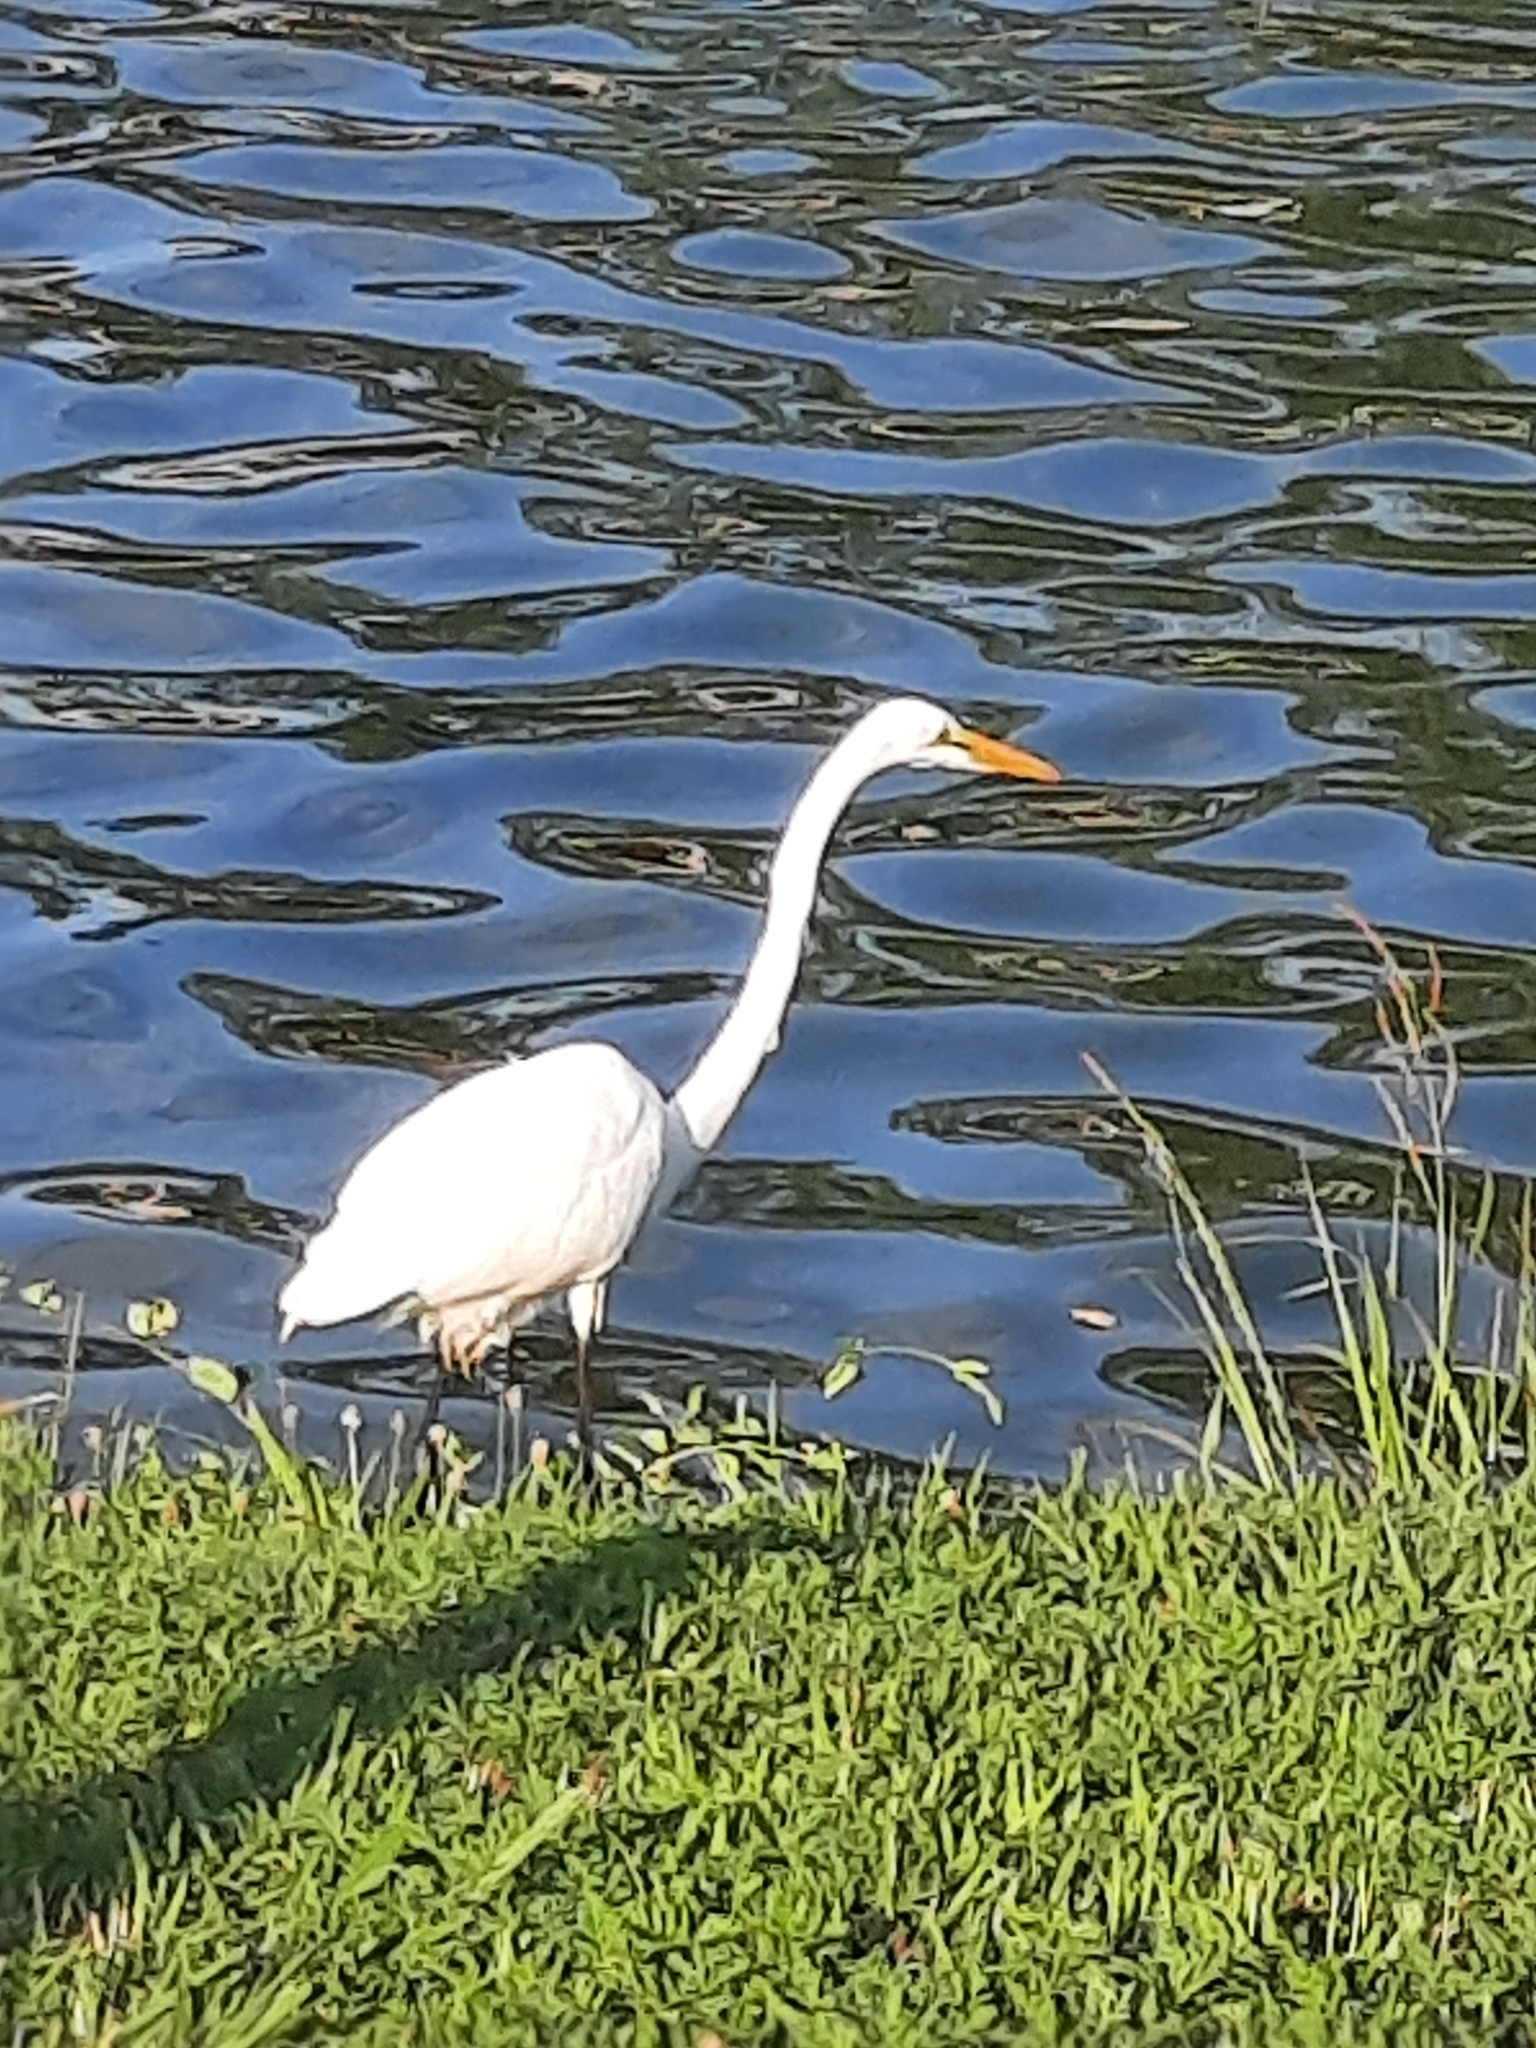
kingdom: Animalia
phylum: Chordata
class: Aves
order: Pelecaniformes
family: Ardeidae
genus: Ardea
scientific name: Ardea alba
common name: Great egret
